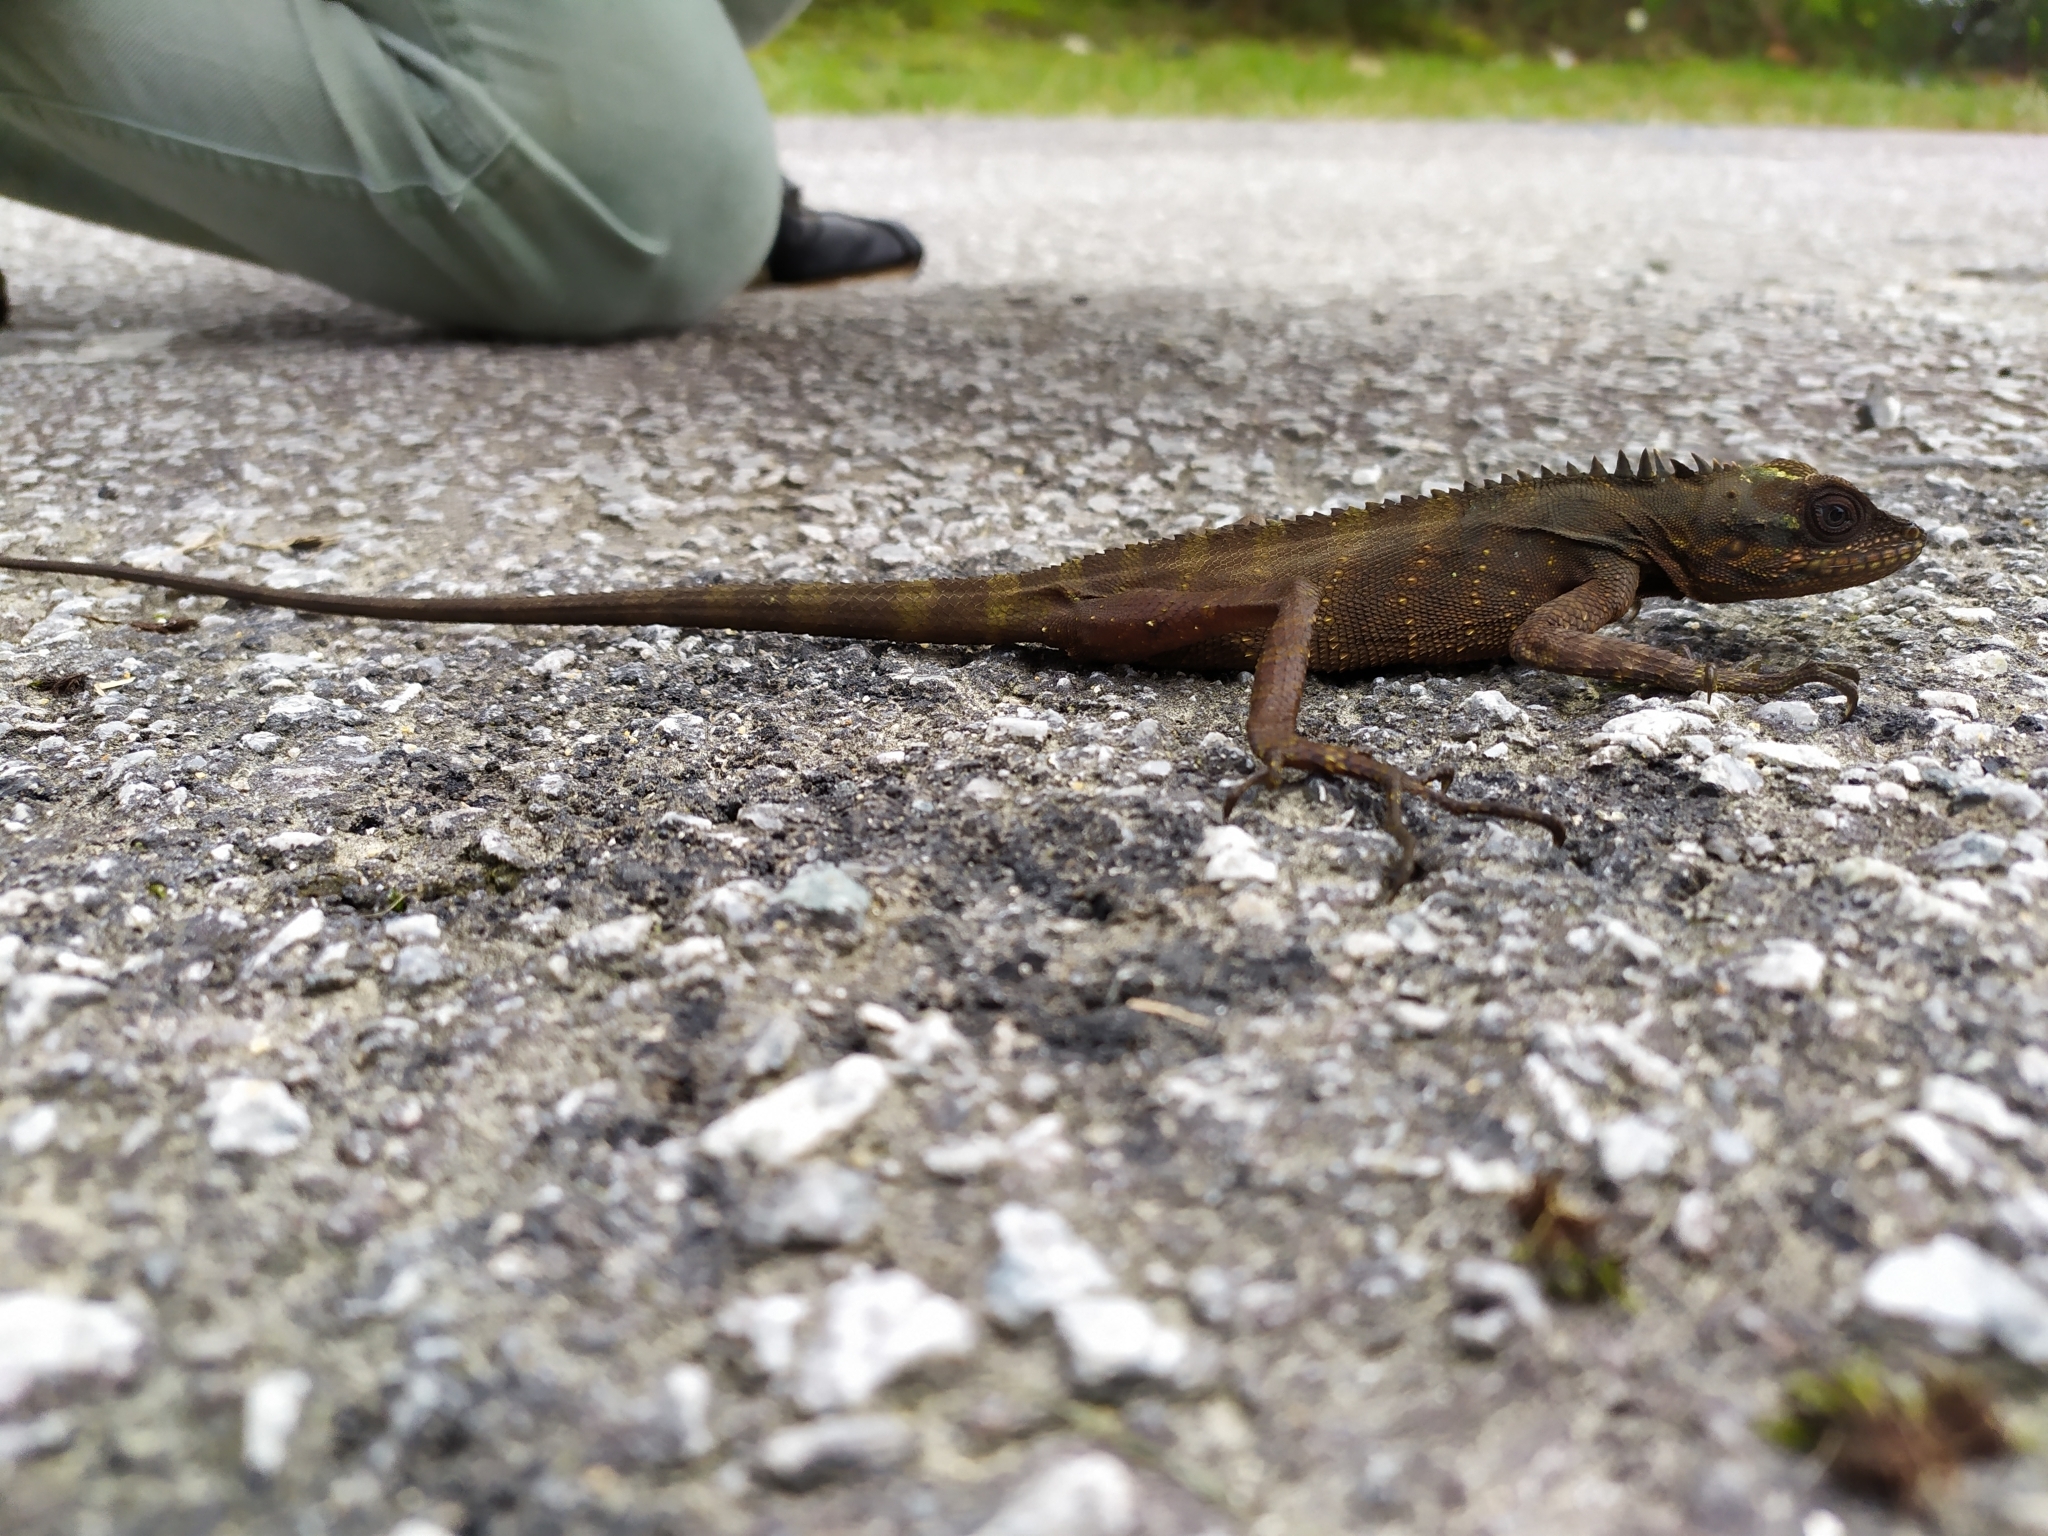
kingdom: Animalia
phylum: Chordata
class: Squamata
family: Agamidae
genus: Malayodracon
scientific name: Malayodracon robinsonii
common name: Robinson's anglehead lizard
